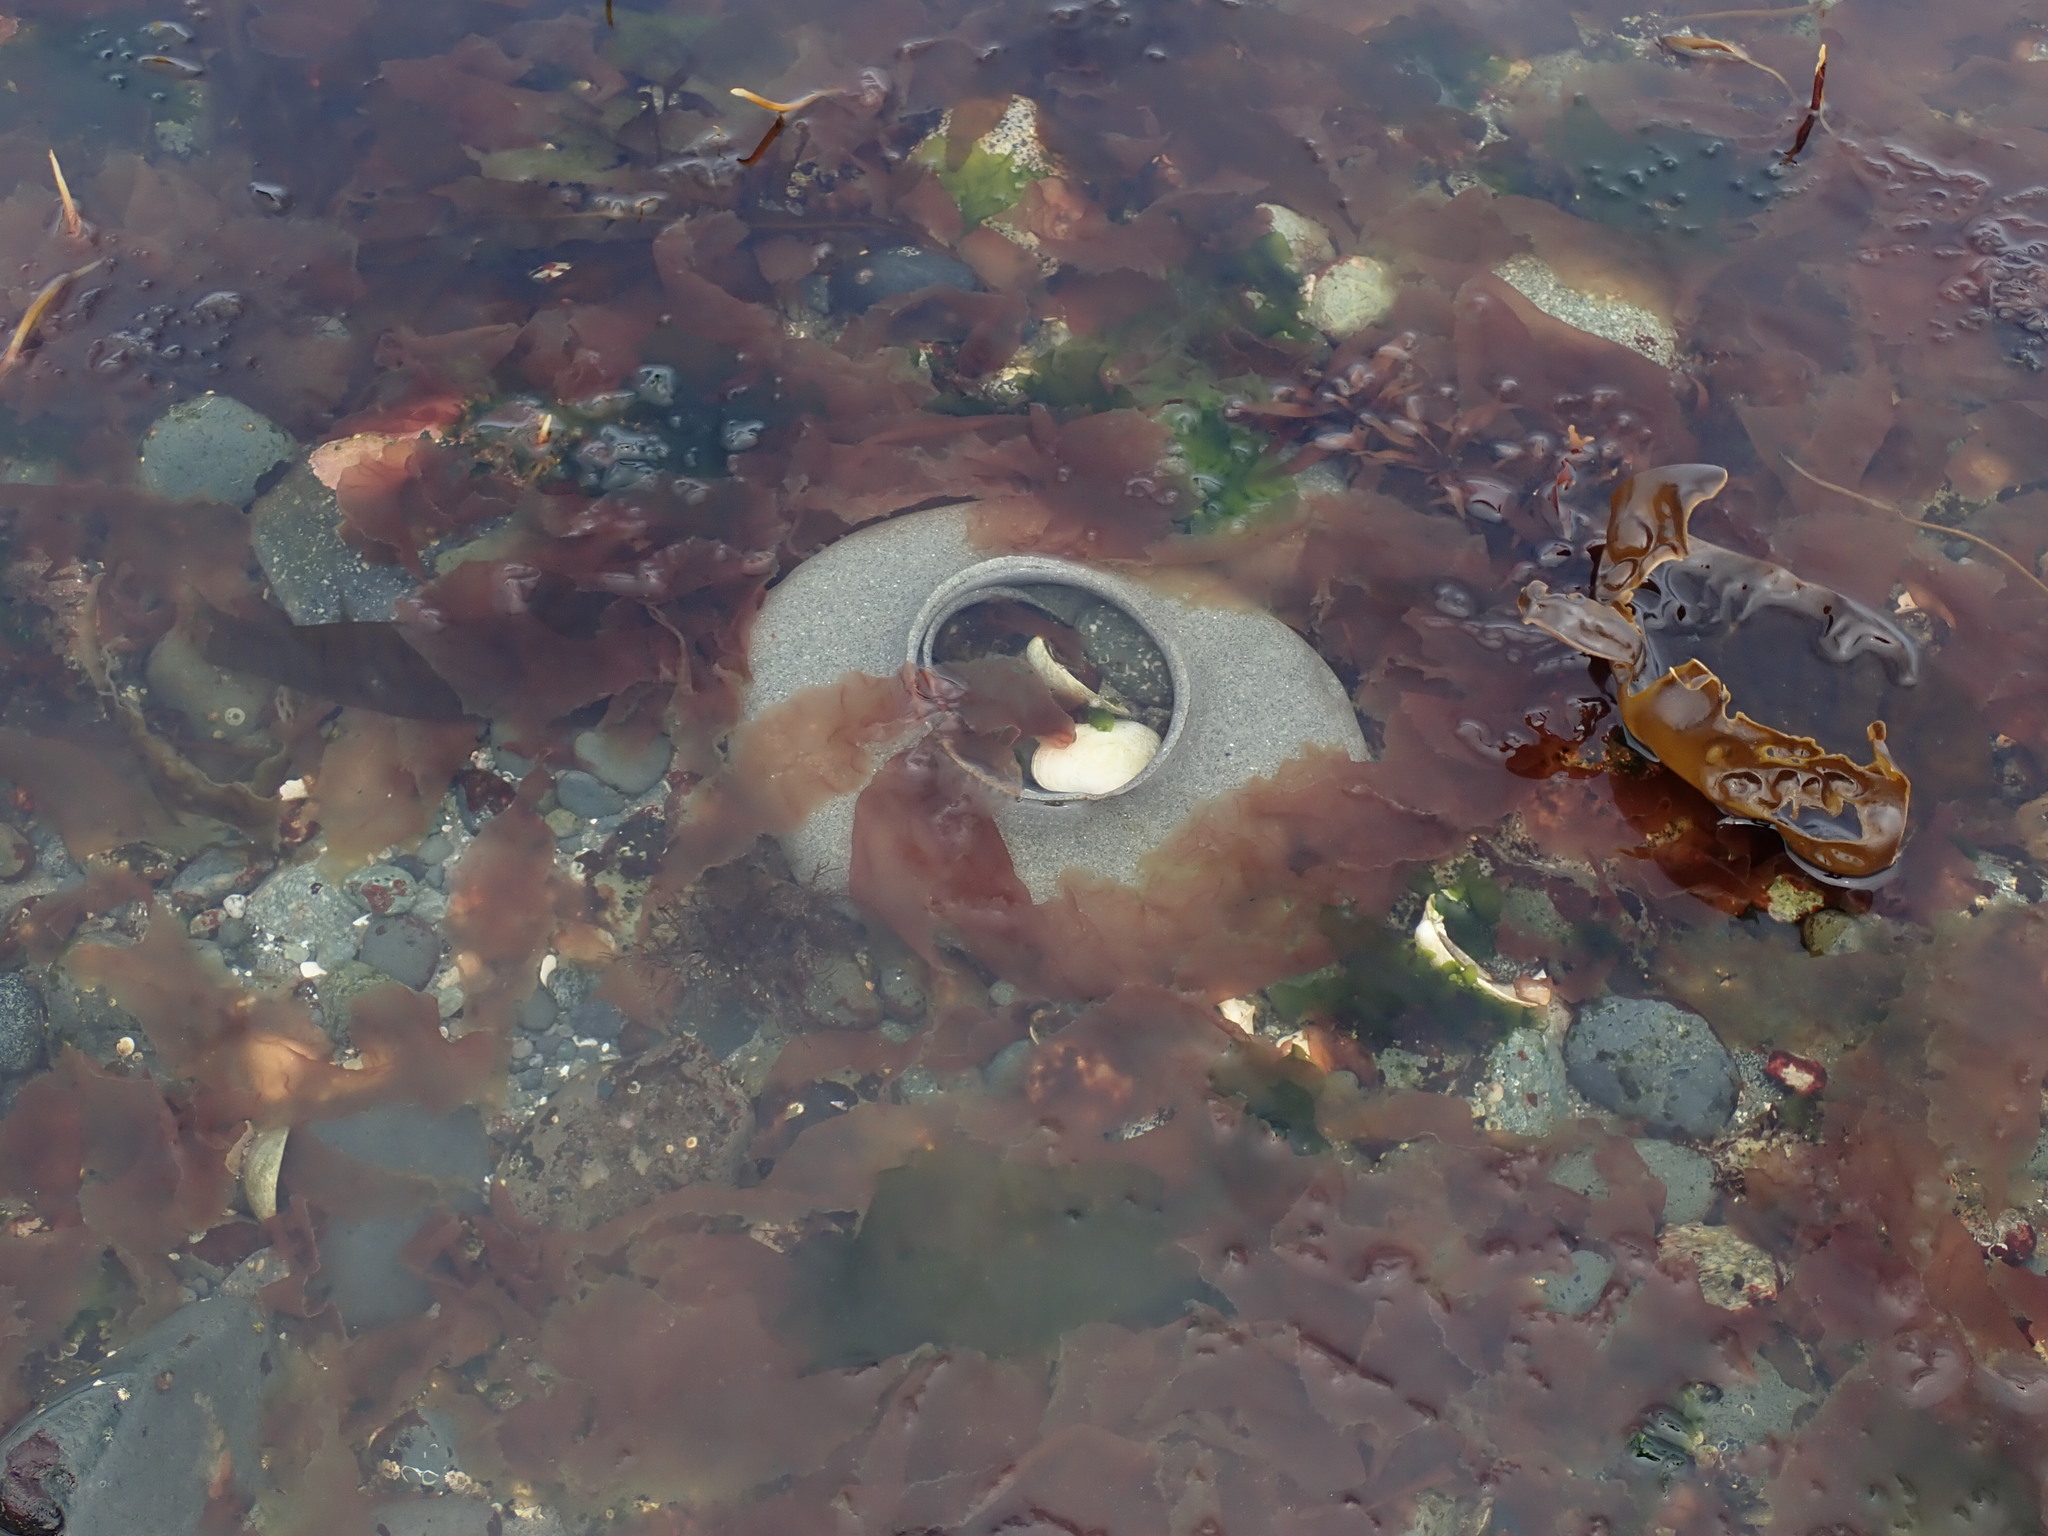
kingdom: Animalia
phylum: Mollusca
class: Gastropoda
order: Littorinimorpha
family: Naticidae
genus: Neverita
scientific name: Neverita lewisii
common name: Lewis' moonsnail
